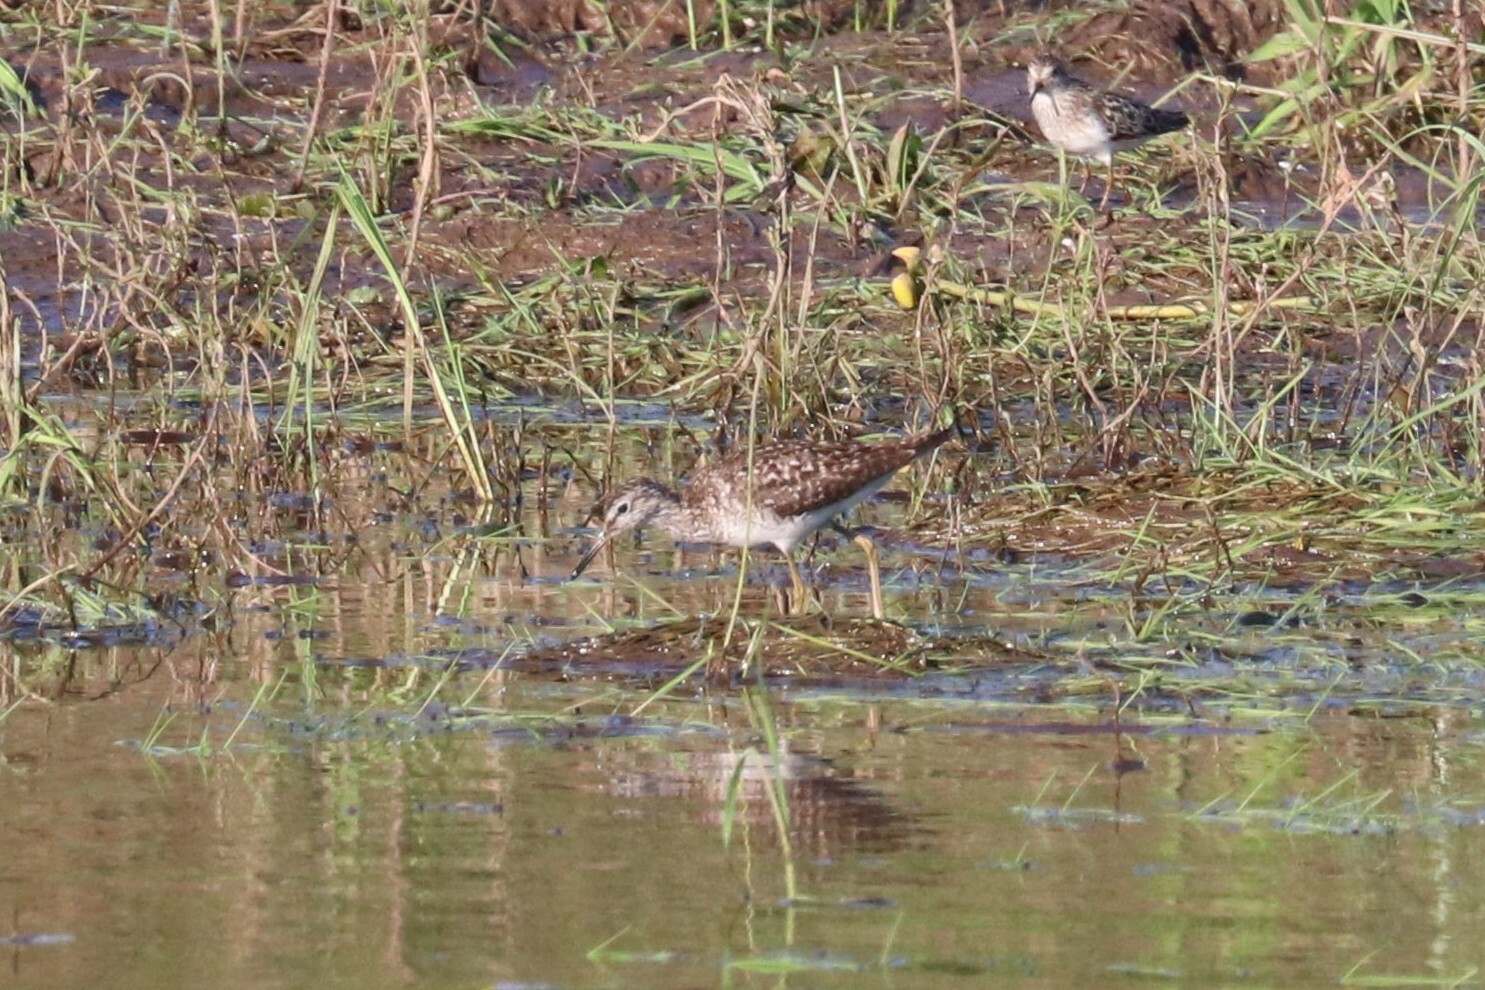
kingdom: Animalia
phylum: Chordata
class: Aves
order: Charadriiformes
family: Scolopacidae
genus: Tringa
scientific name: Tringa glareola
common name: Wood sandpiper
